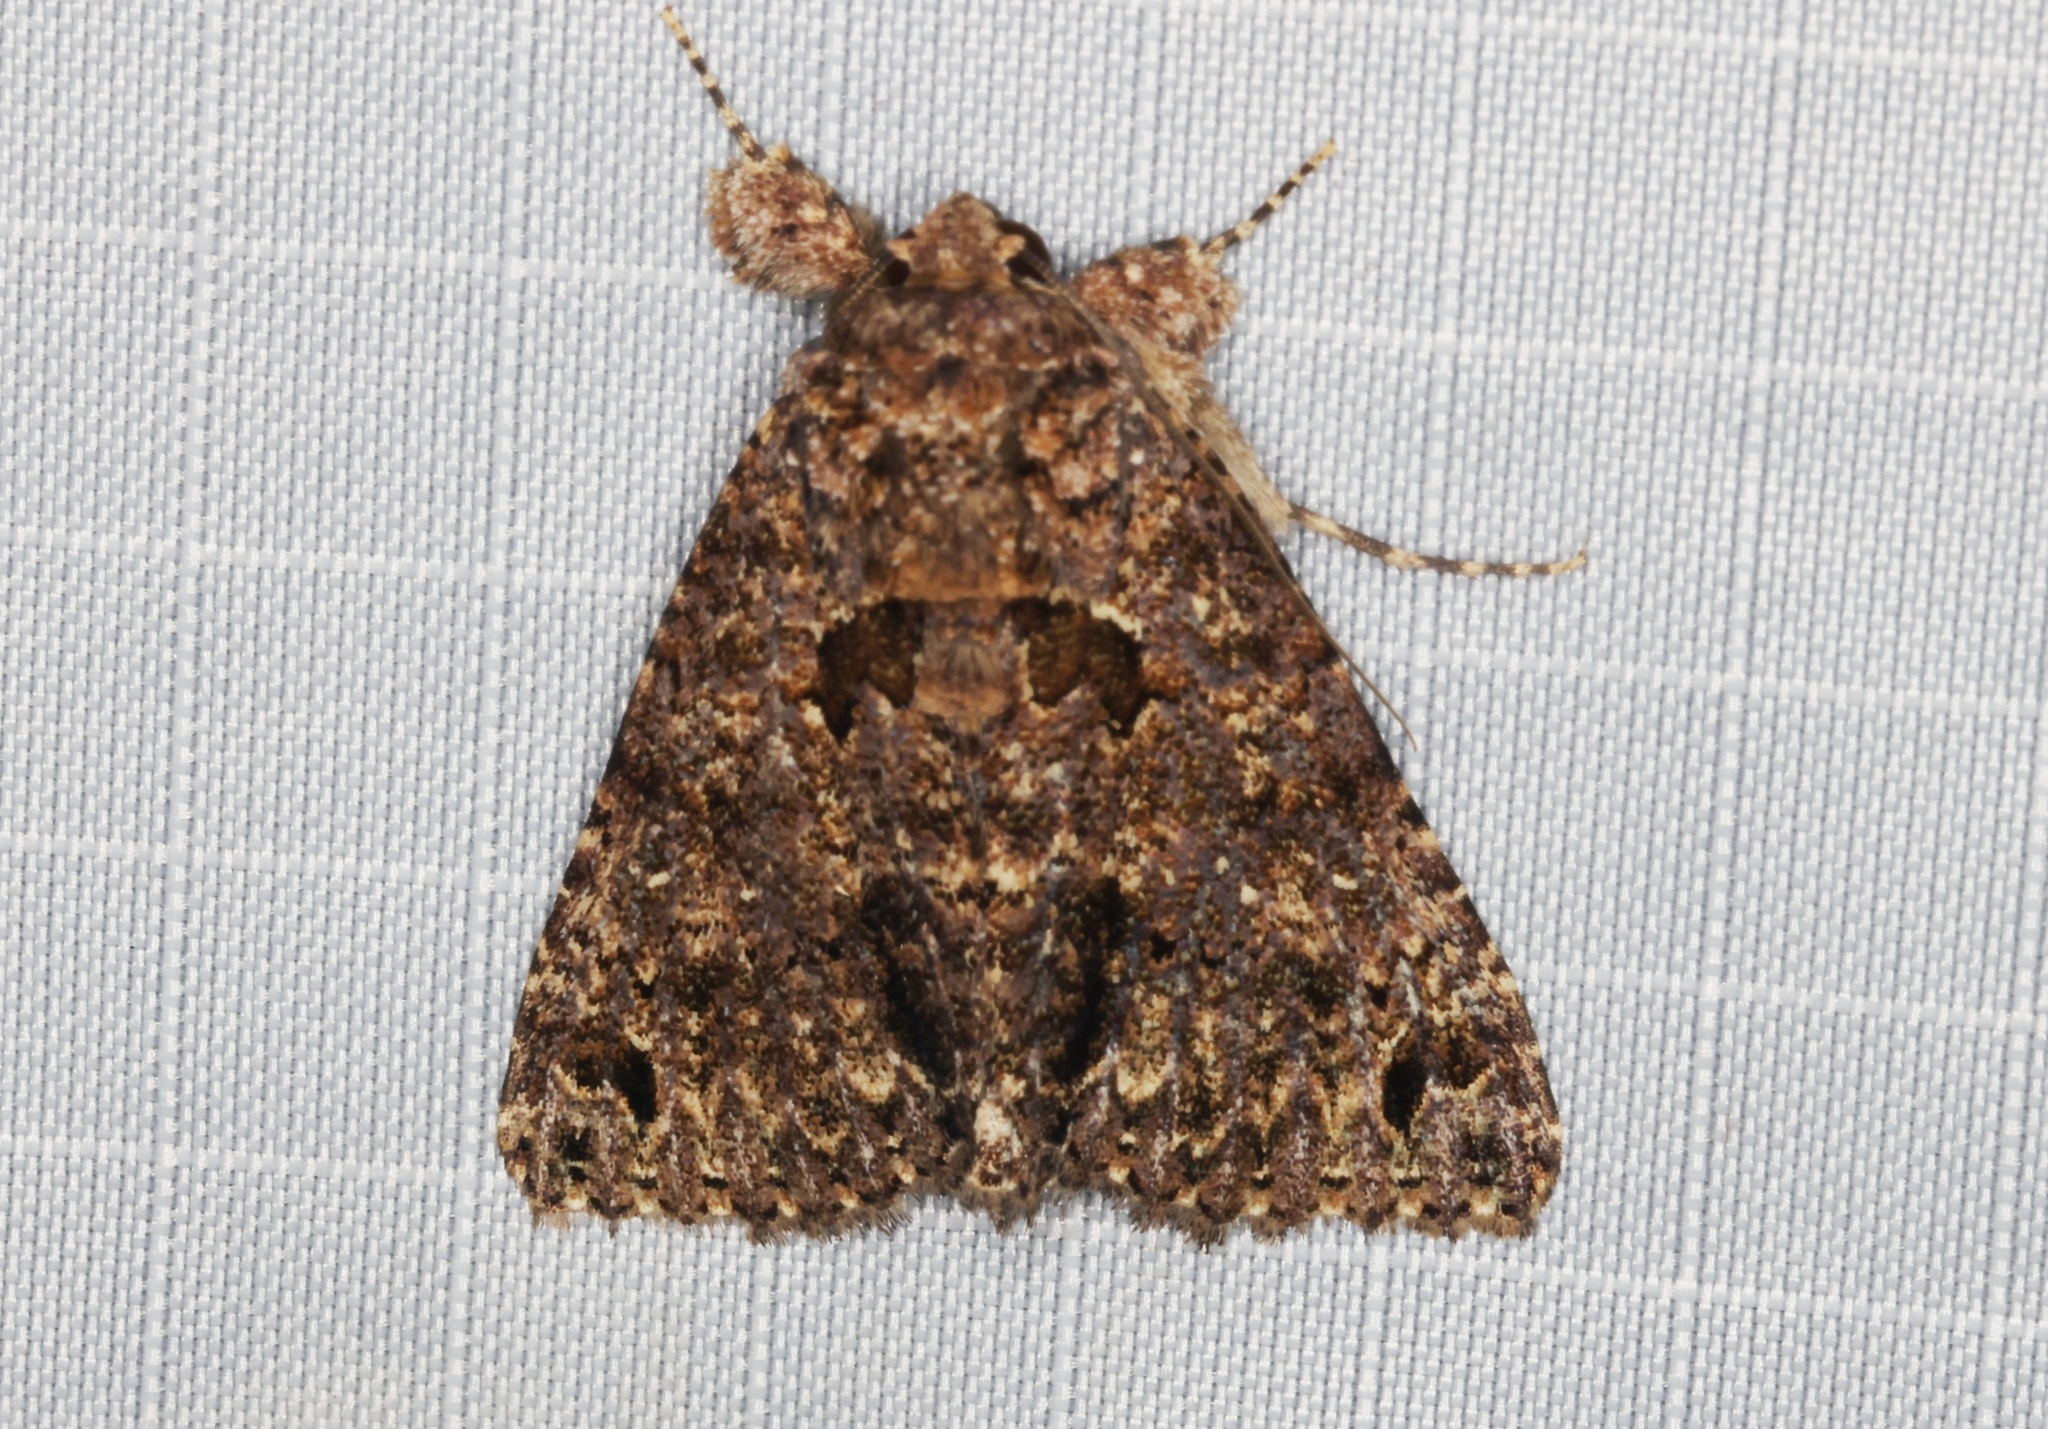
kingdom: Animalia
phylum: Arthropoda
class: Insecta
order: Lepidoptera
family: Erebidae
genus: Erygia
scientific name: Erygia apicalis
